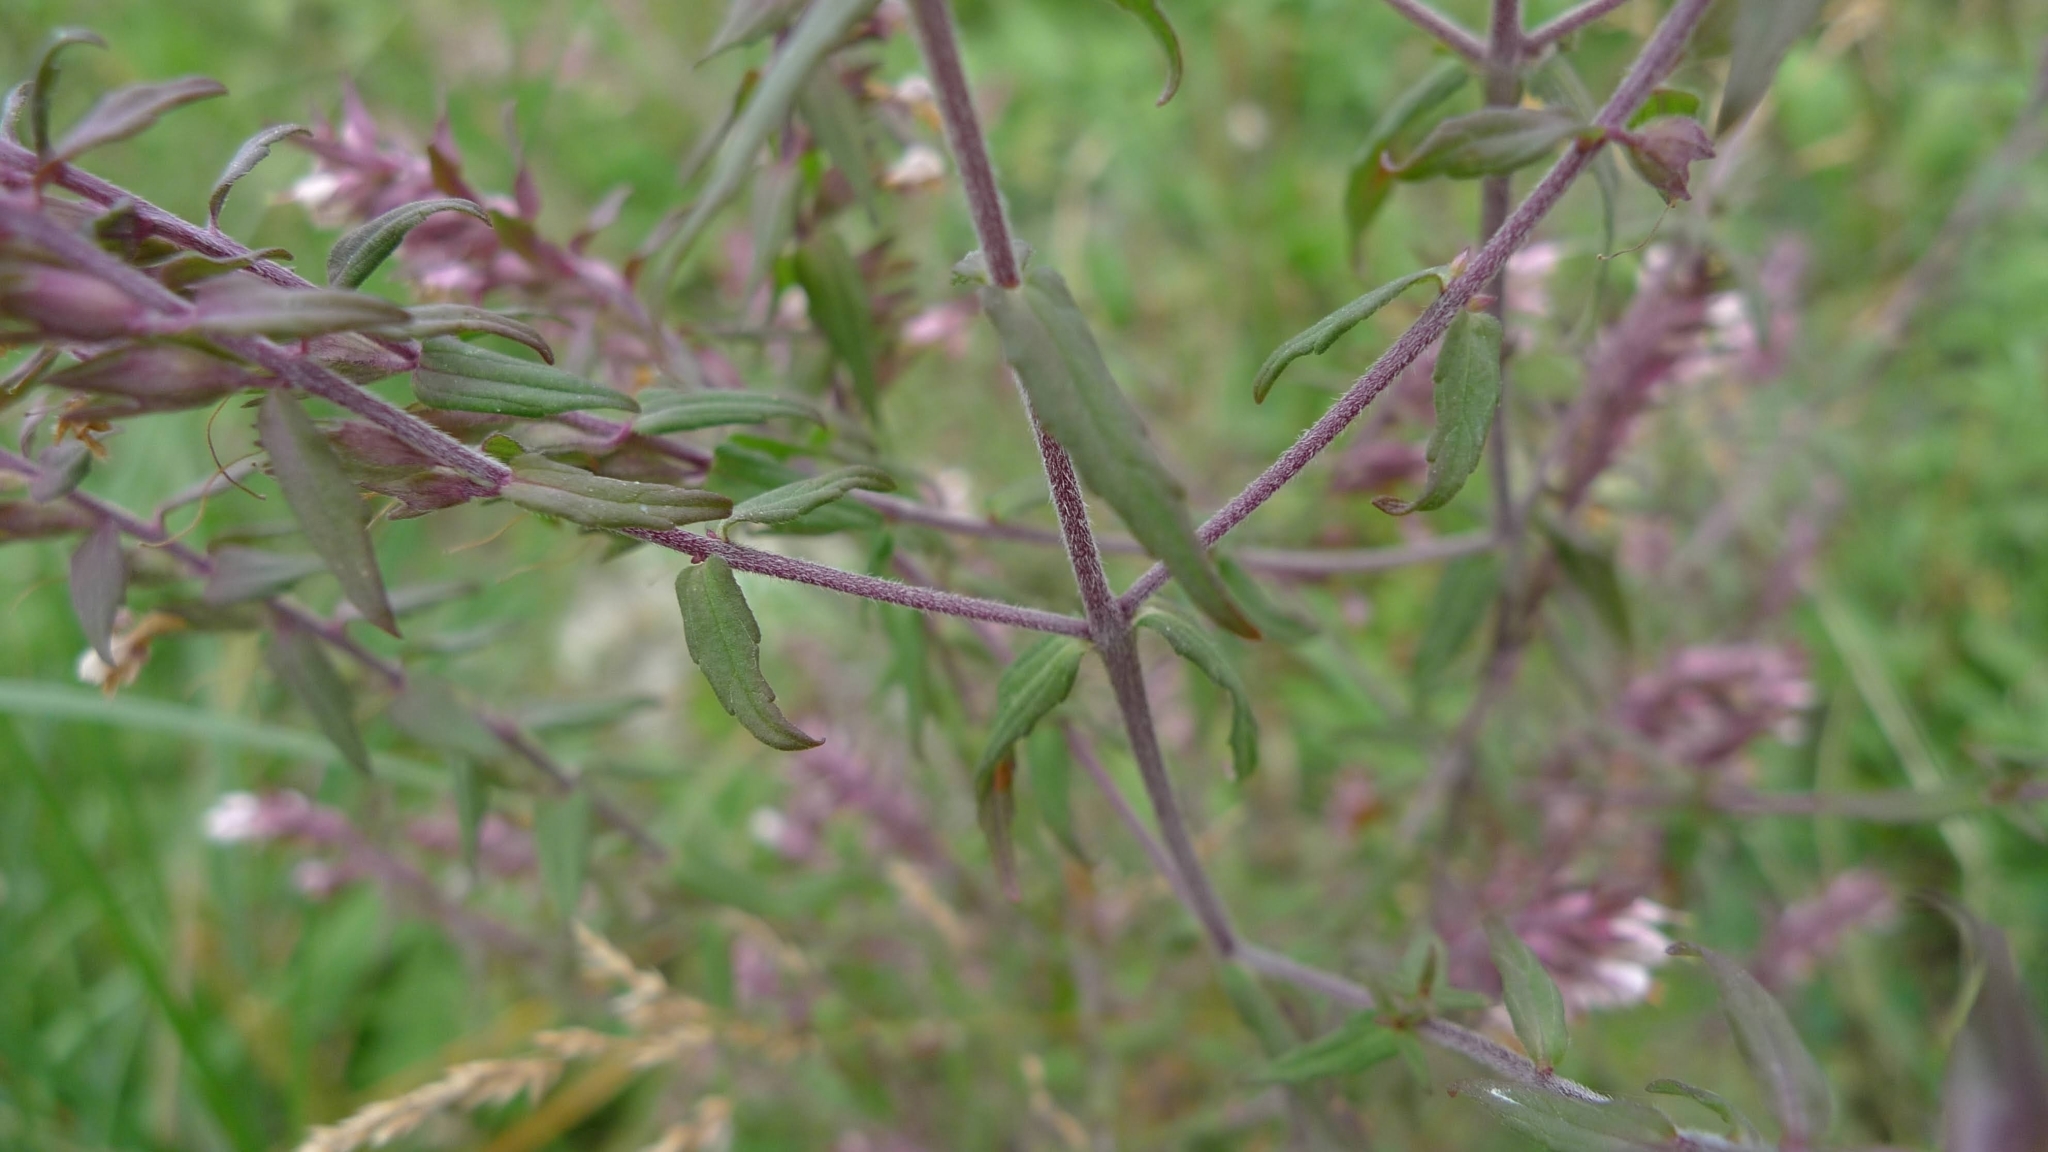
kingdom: Plantae
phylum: Tracheophyta
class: Magnoliopsida
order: Lamiales
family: Orobanchaceae
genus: Odontites
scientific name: Odontites vulgaris
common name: Broomrape
